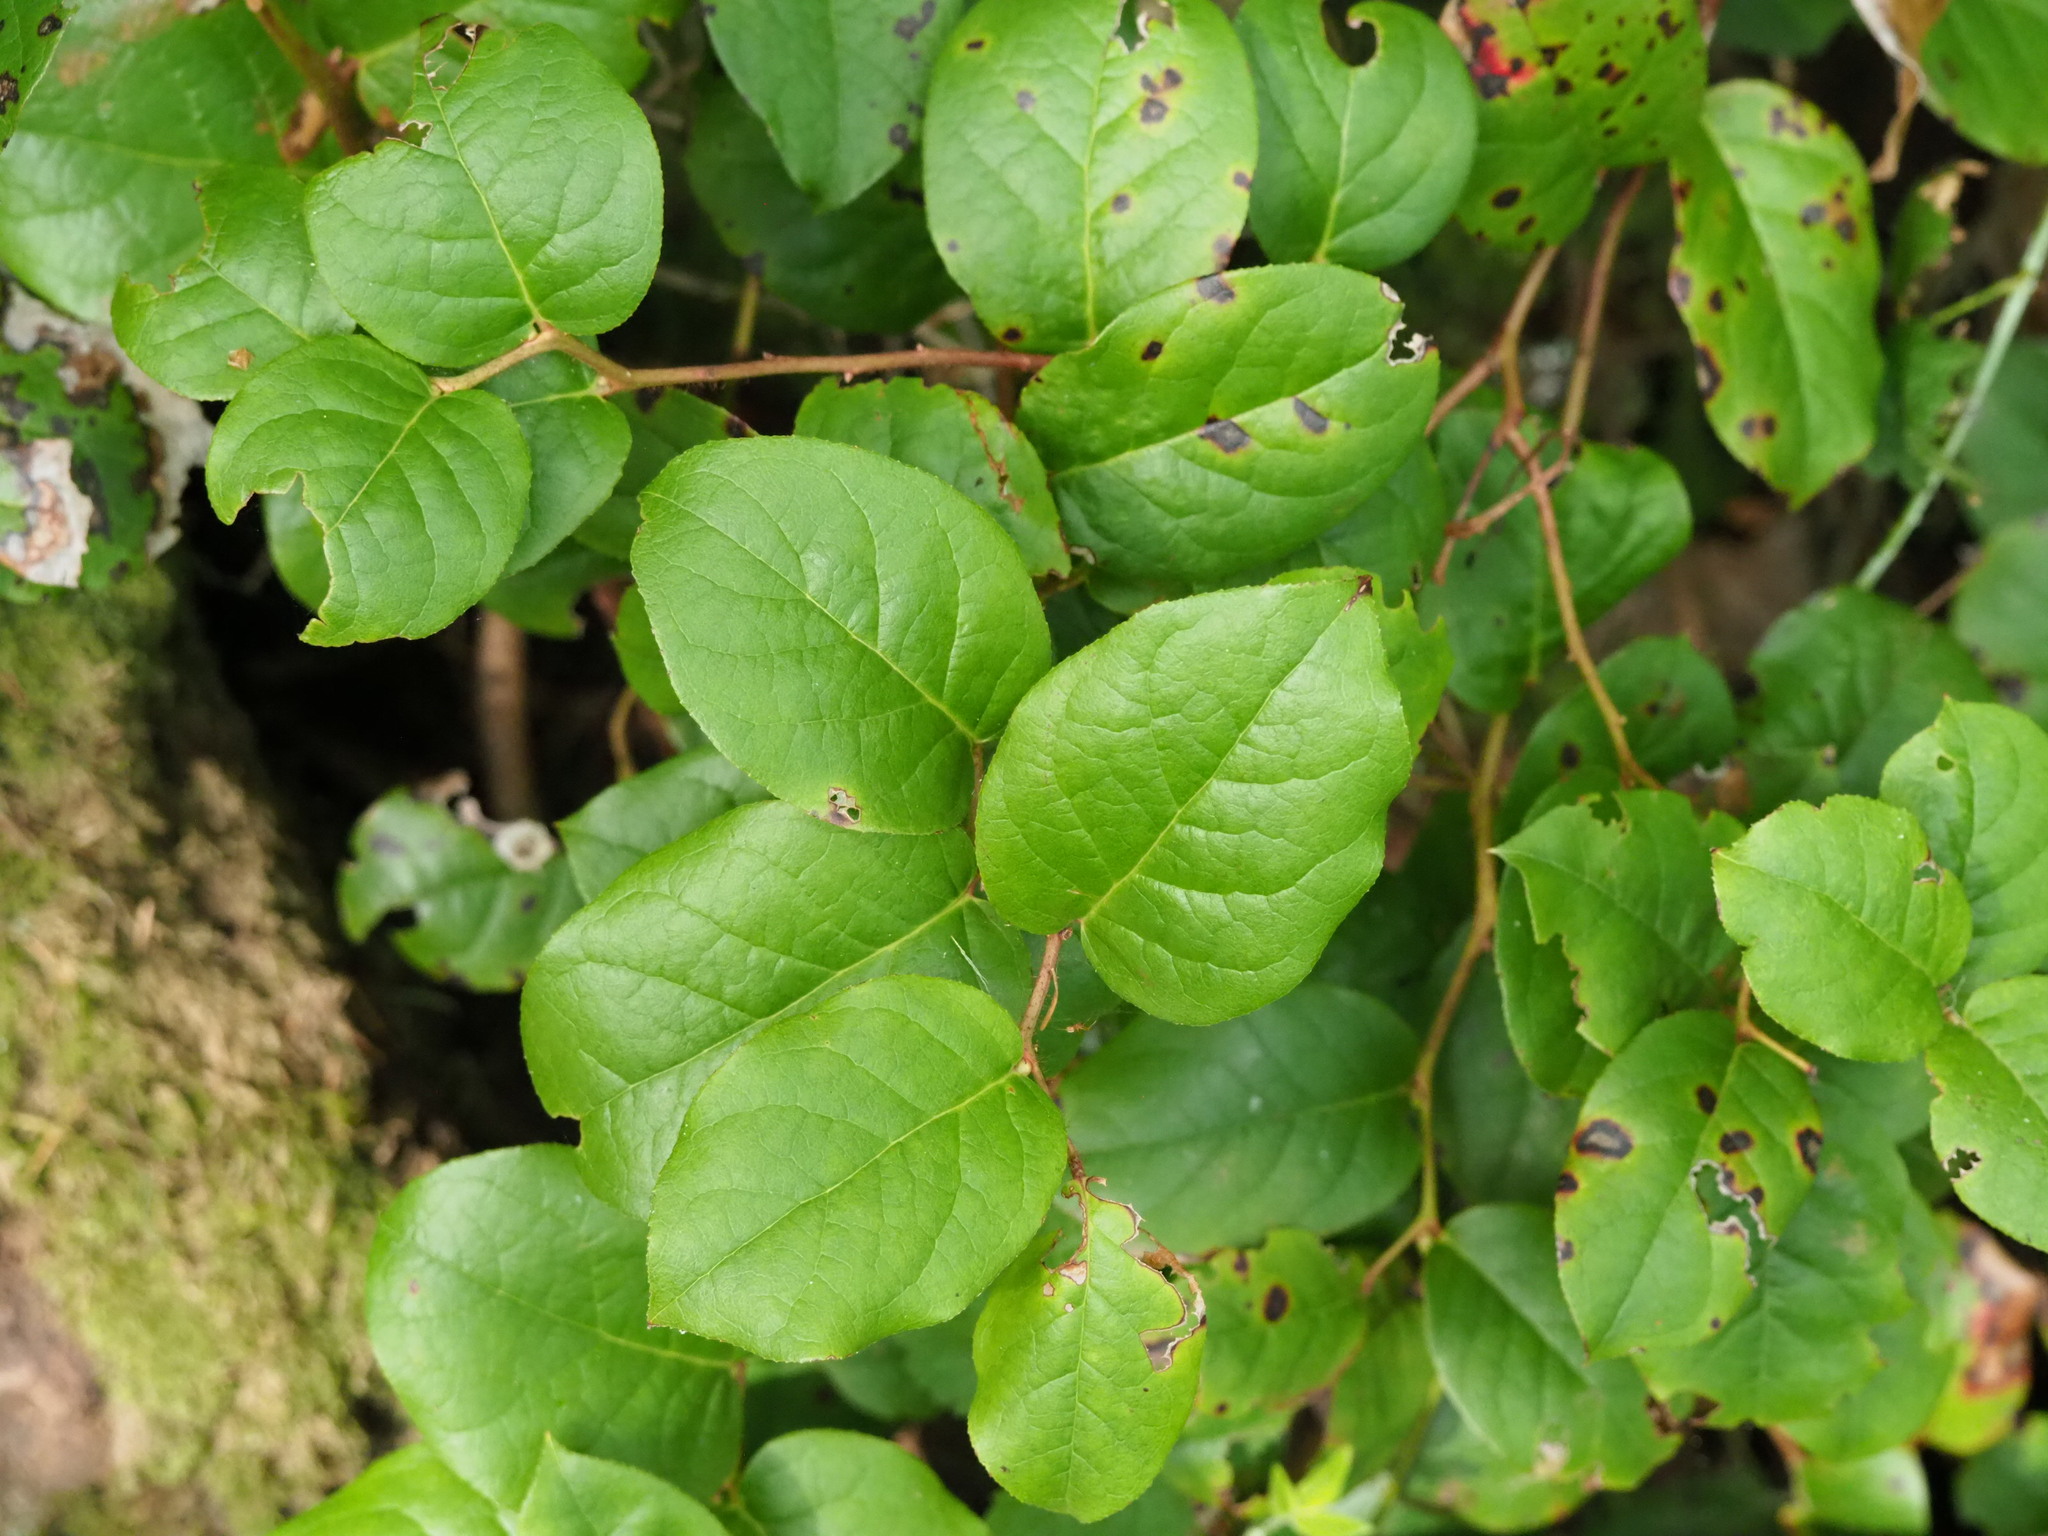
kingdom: Plantae
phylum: Tracheophyta
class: Magnoliopsida
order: Ericales
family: Ericaceae
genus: Gaultheria
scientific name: Gaultheria shallon
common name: Shallon
